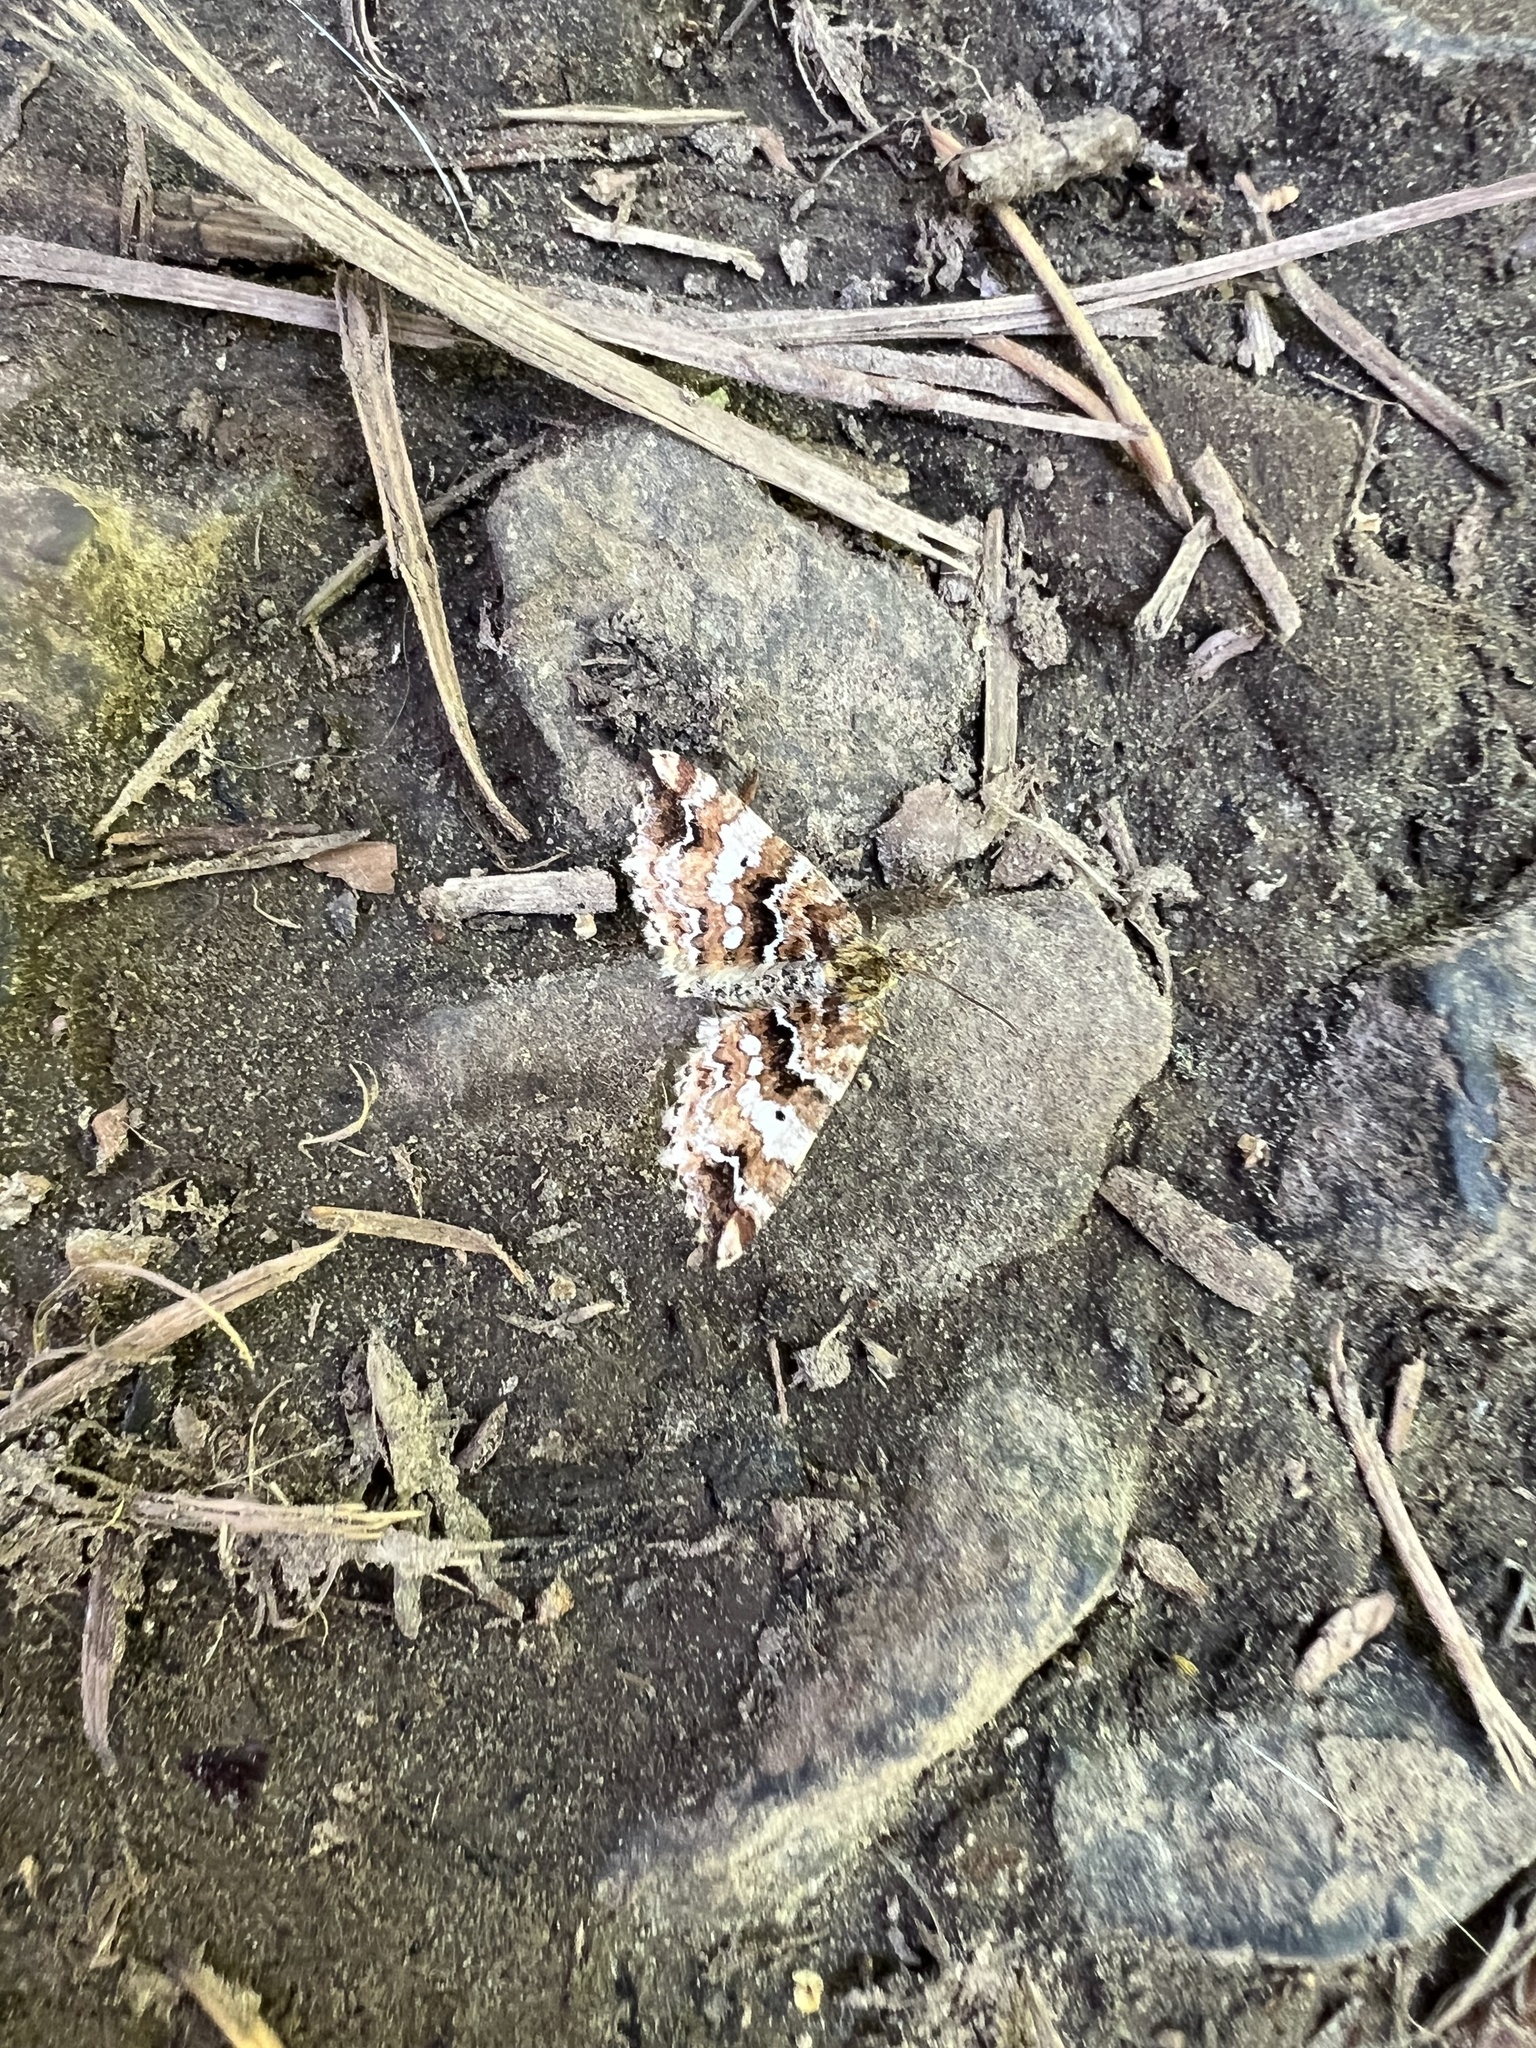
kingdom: Animalia
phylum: Arthropoda
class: Insecta
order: Lepidoptera
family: Geometridae
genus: Enchoria
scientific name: Enchoria lacteata
